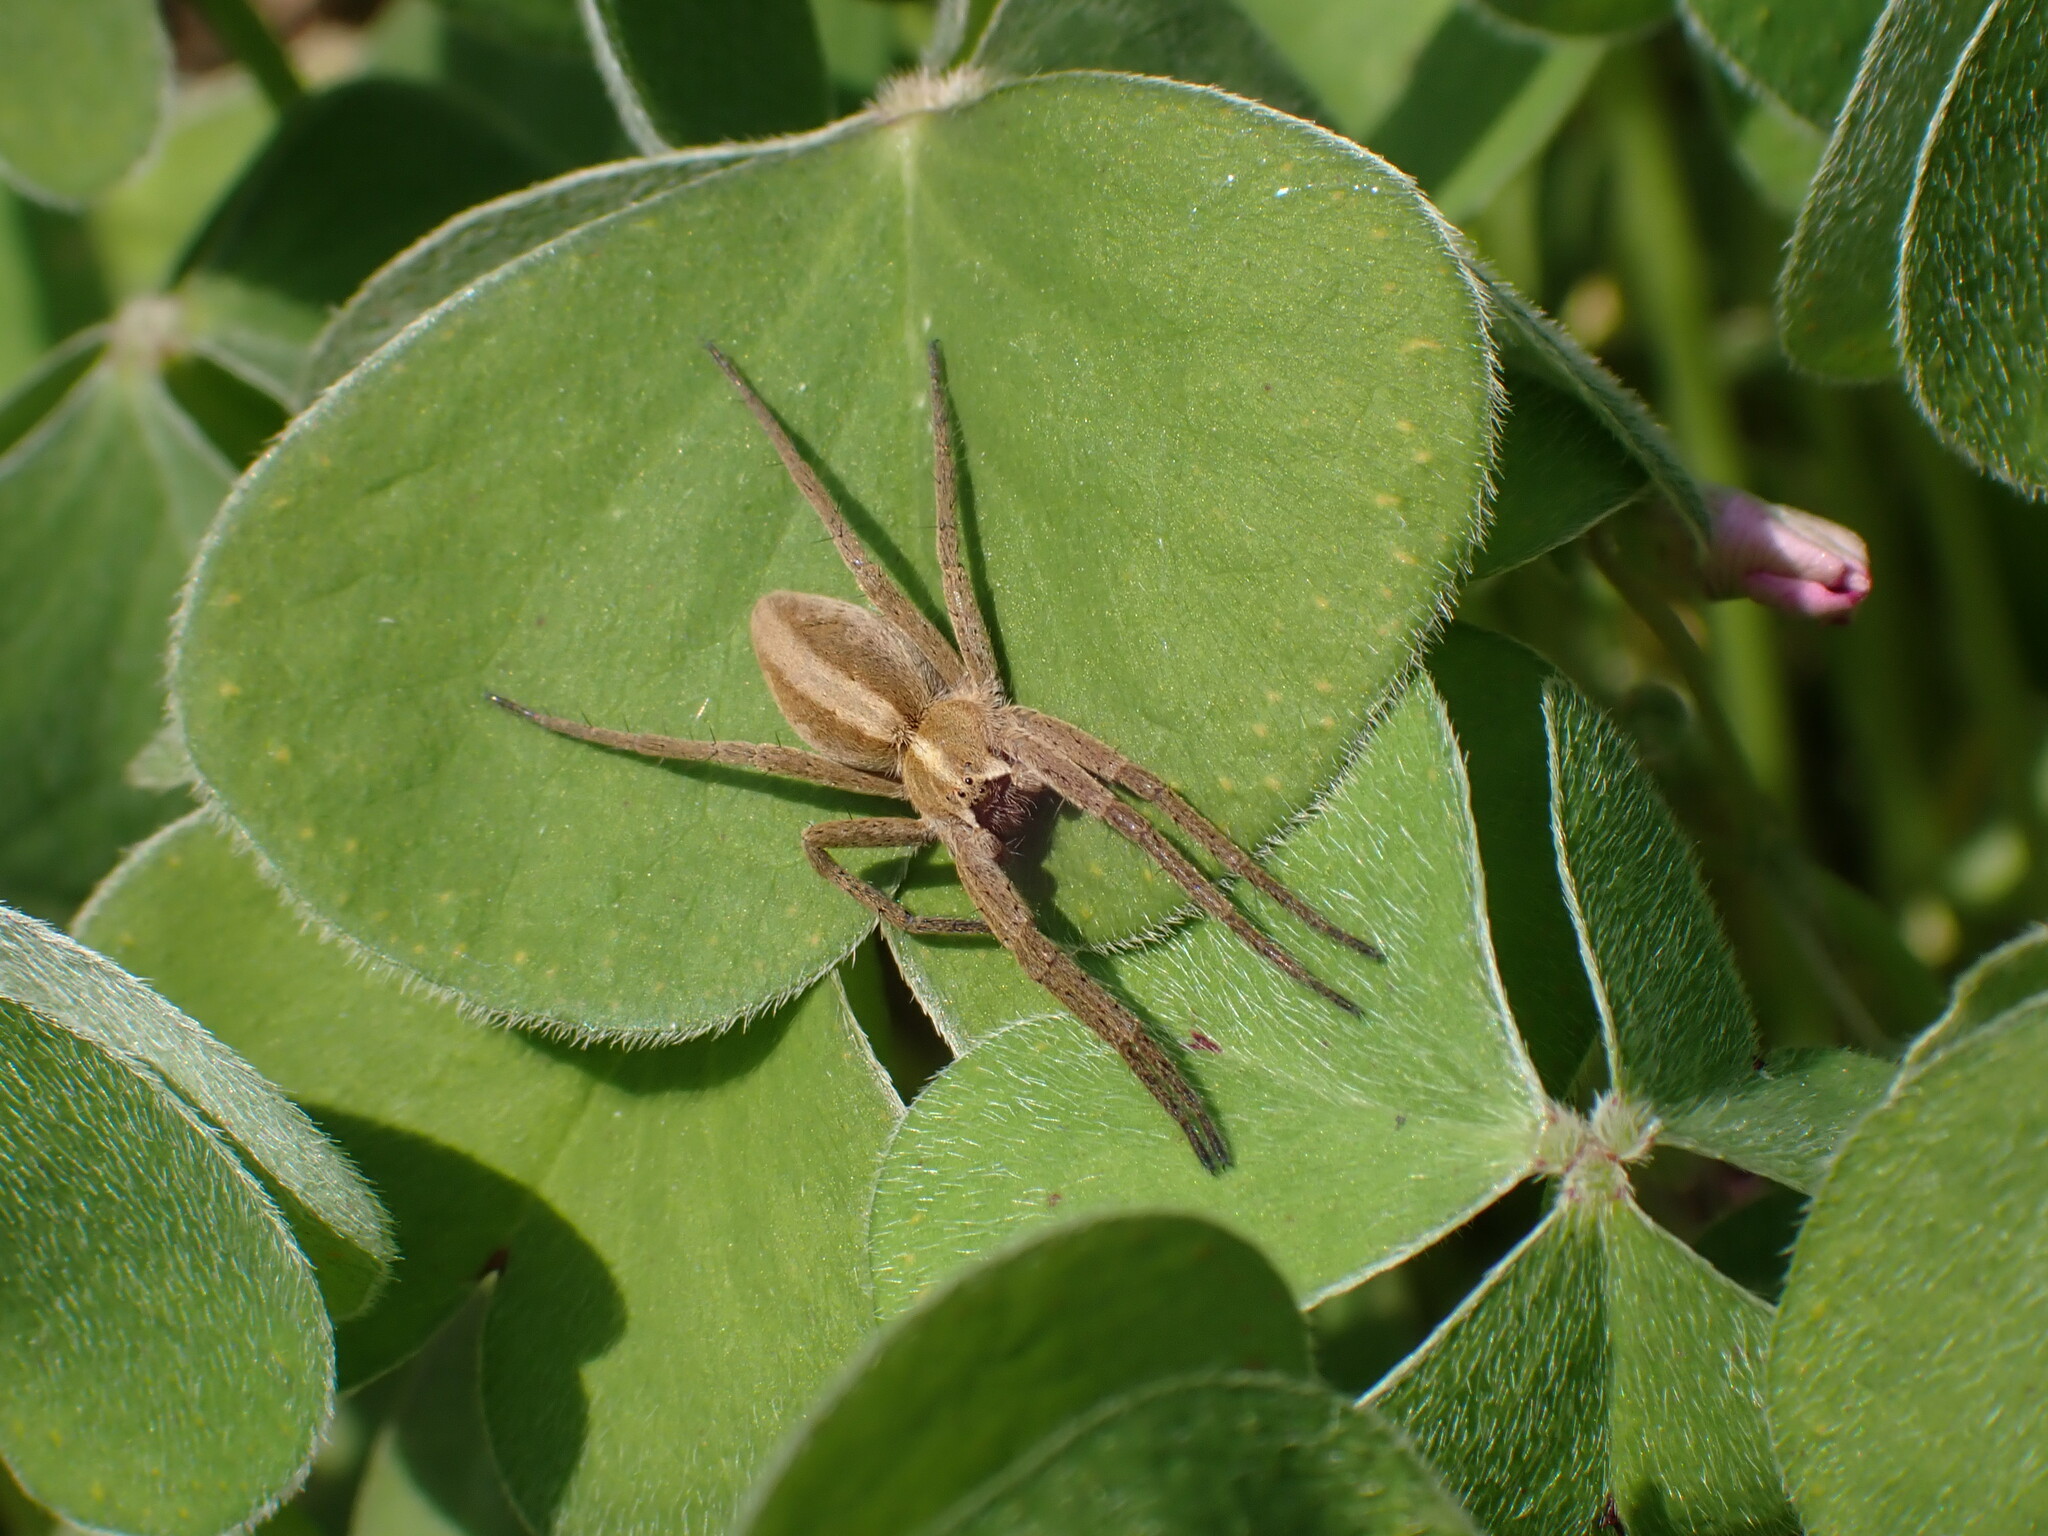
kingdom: Animalia
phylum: Arthropoda
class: Arachnida
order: Araneae
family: Pisauridae
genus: Pisaura
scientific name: Pisaura mirabilis
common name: Tent spider
